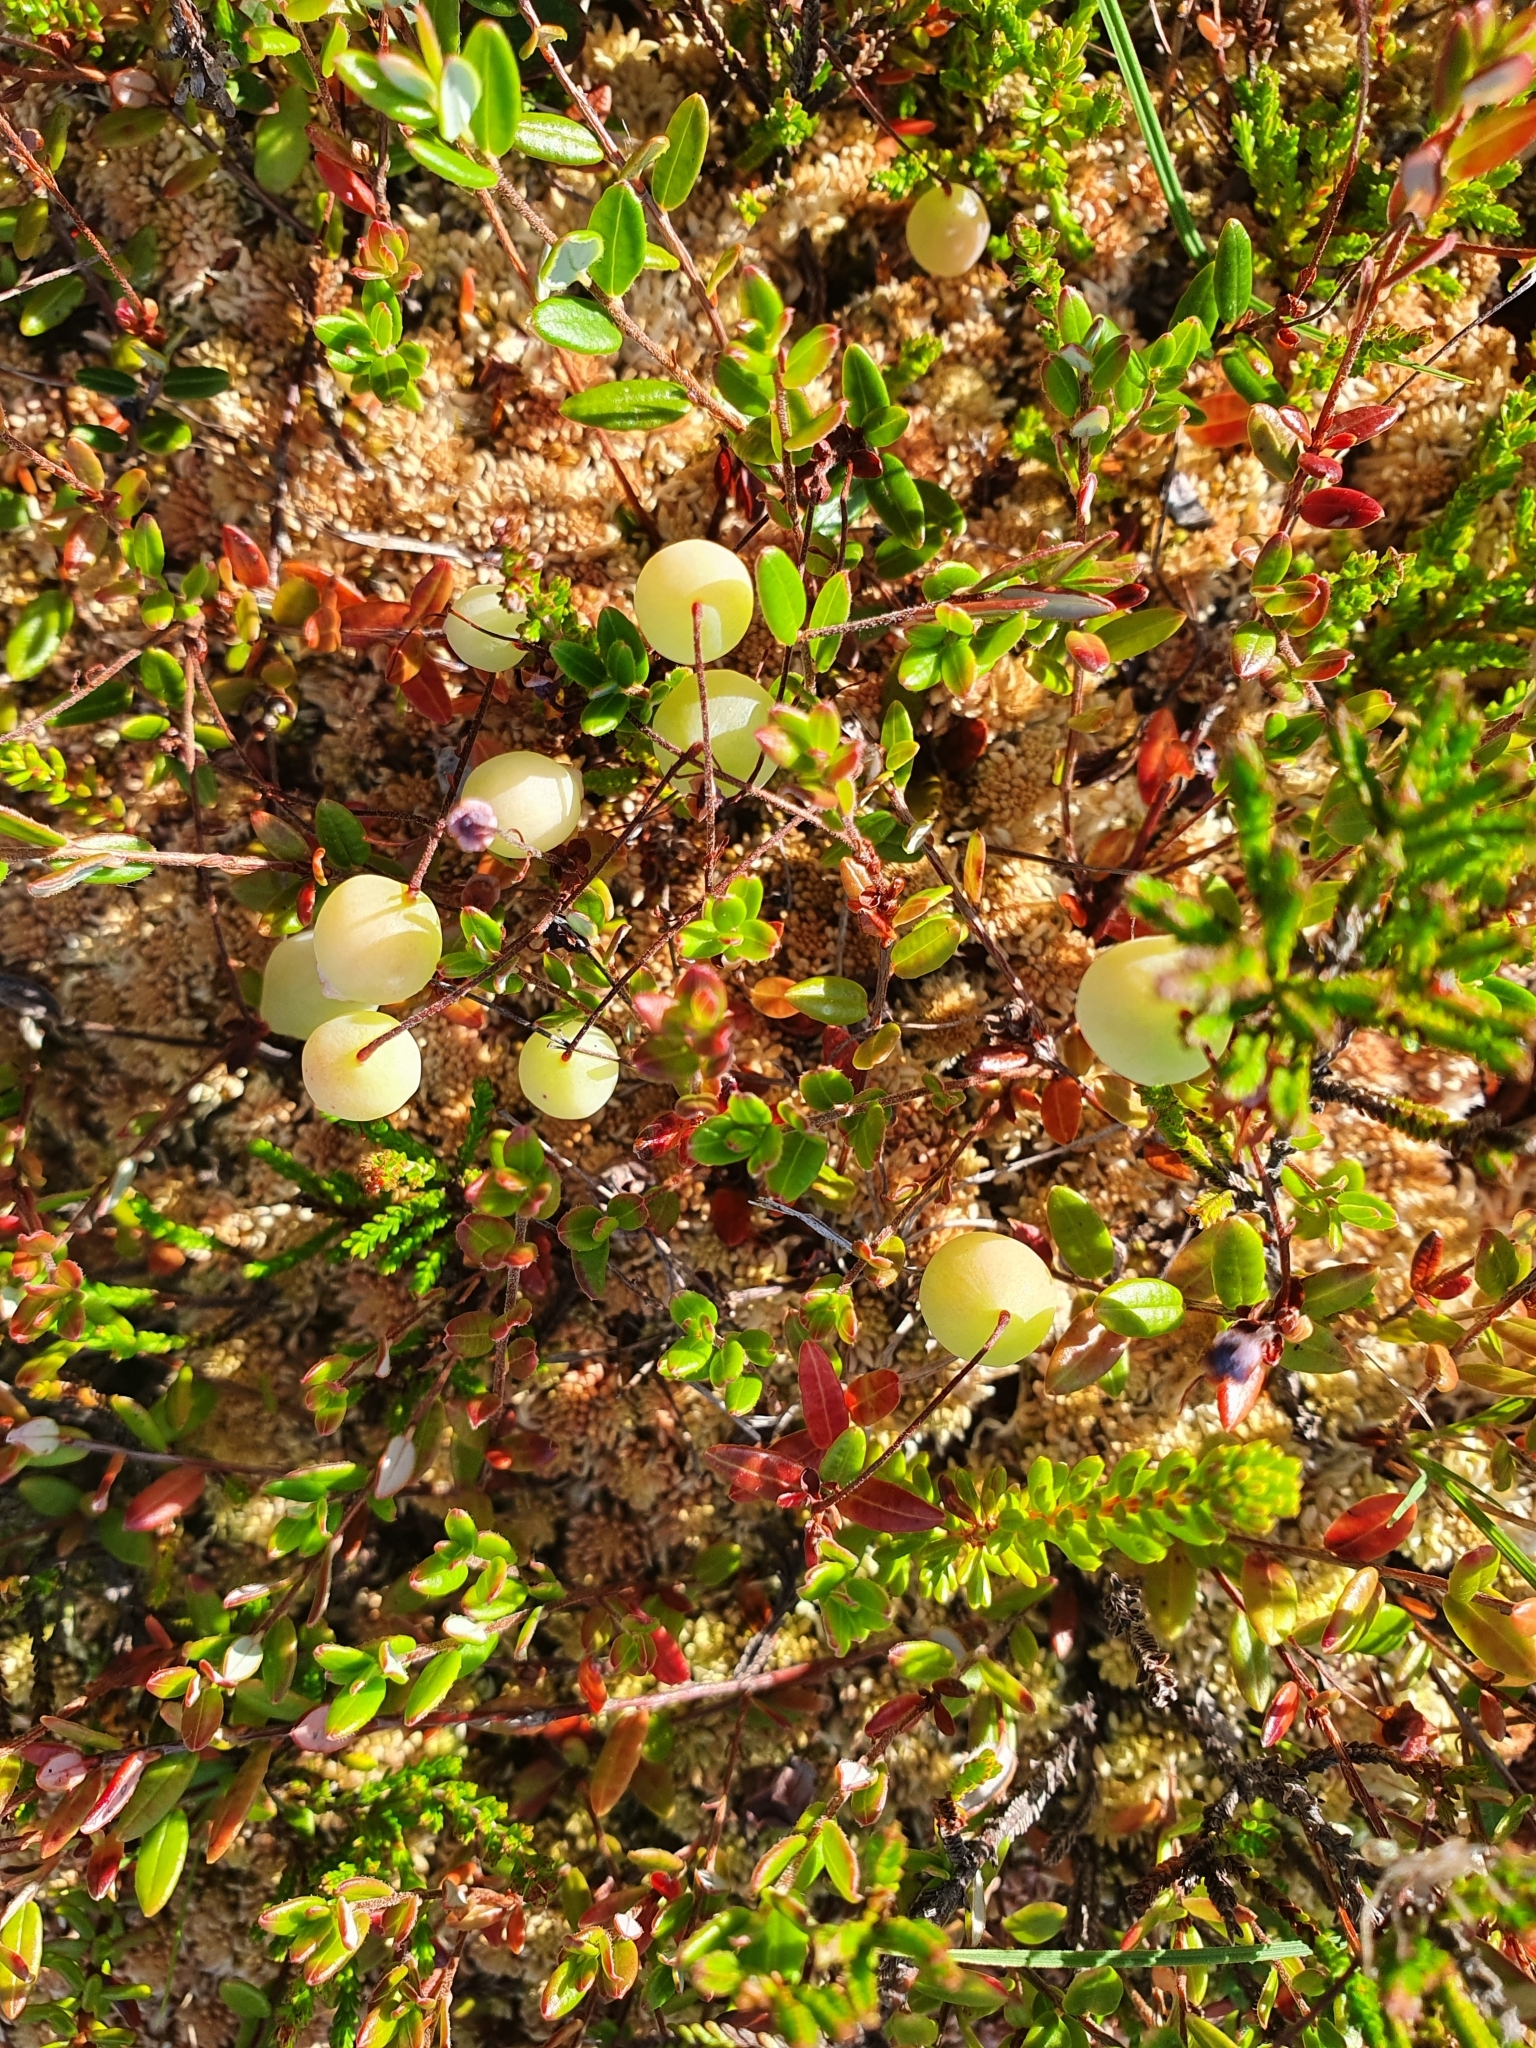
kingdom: Plantae
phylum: Tracheophyta
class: Magnoliopsida
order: Ericales
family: Ericaceae
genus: Vaccinium
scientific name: Vaccinium oxycoccos
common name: Cranberry
